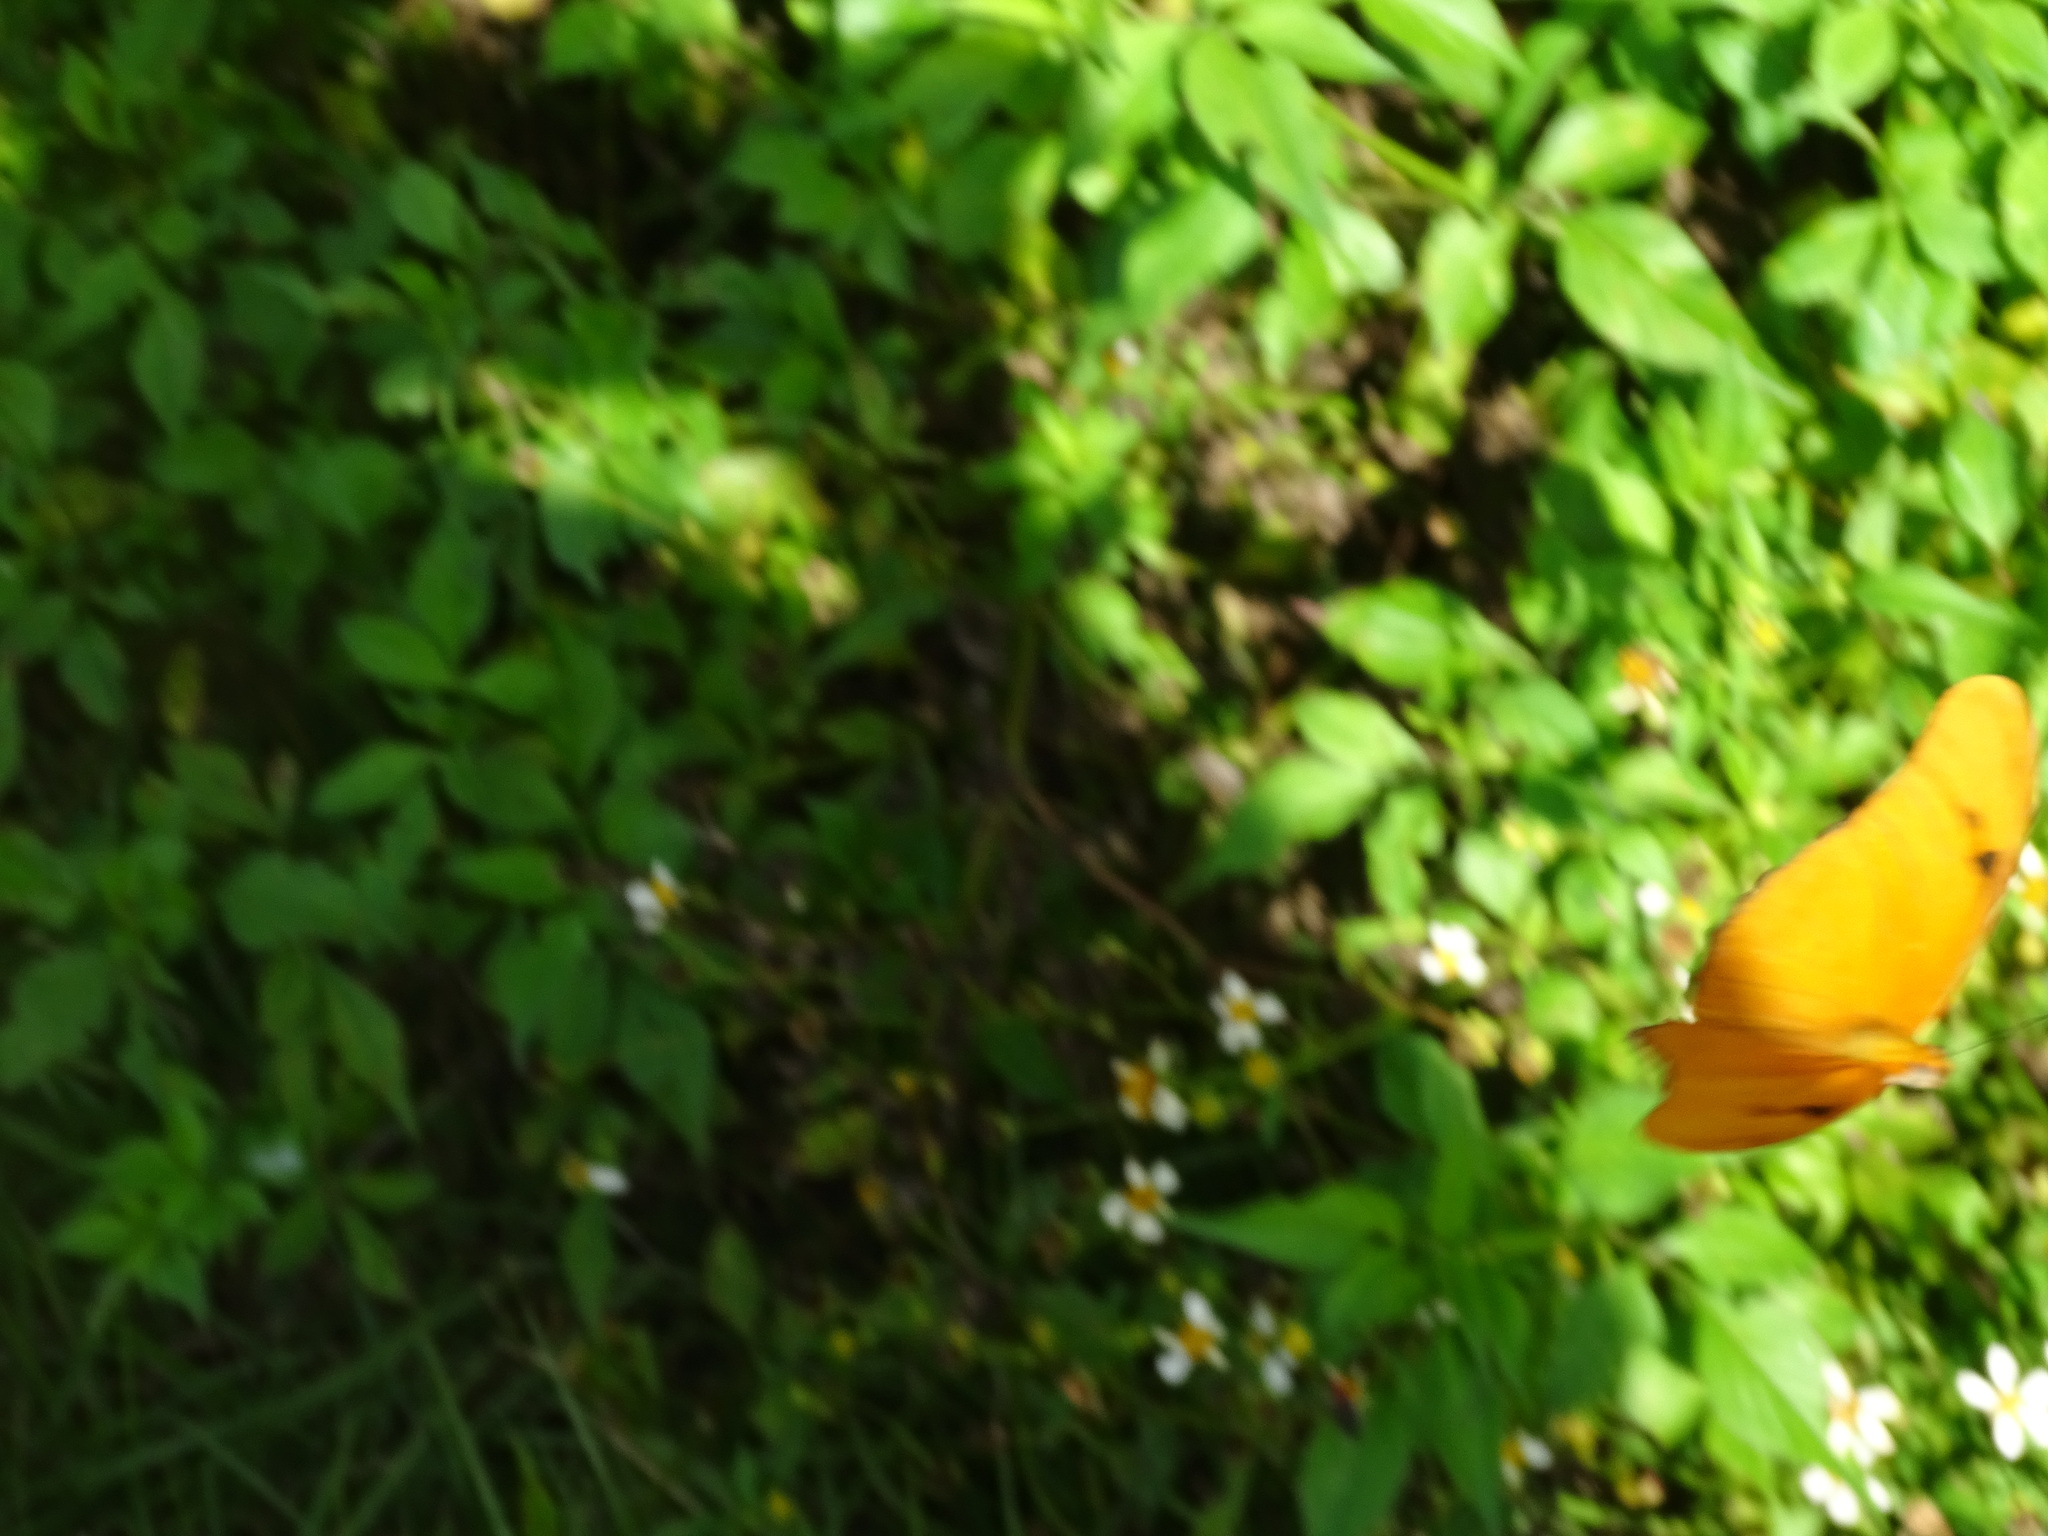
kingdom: Animalia
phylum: Arthropoda
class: Insecta
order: Lepidoptera
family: Nymphalidae
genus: Dryas
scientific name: Dryas iulia
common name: Flambeau
